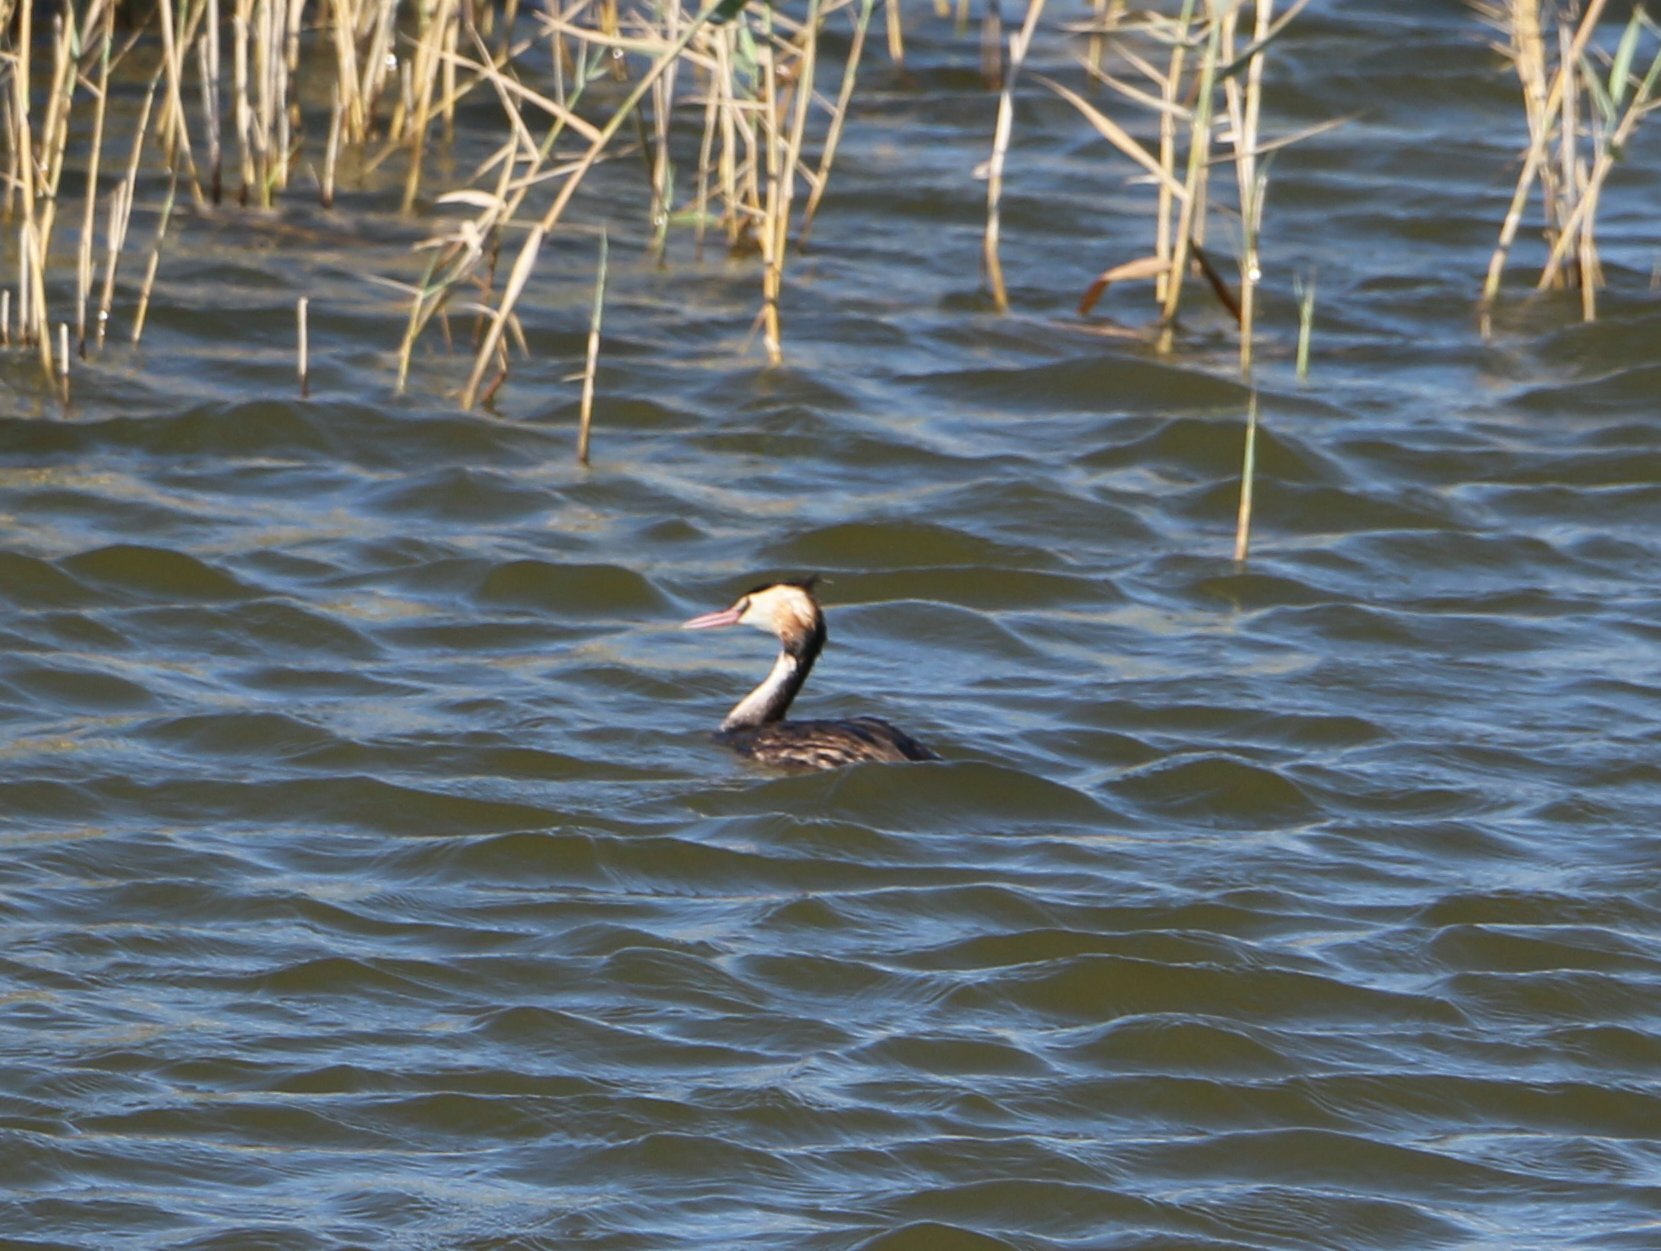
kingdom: Animalia
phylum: Chordata
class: Aves
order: Podicipediformes
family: Podicipedidae
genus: Podiceps
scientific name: Podiceps cristatus
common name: Great crested grebe
